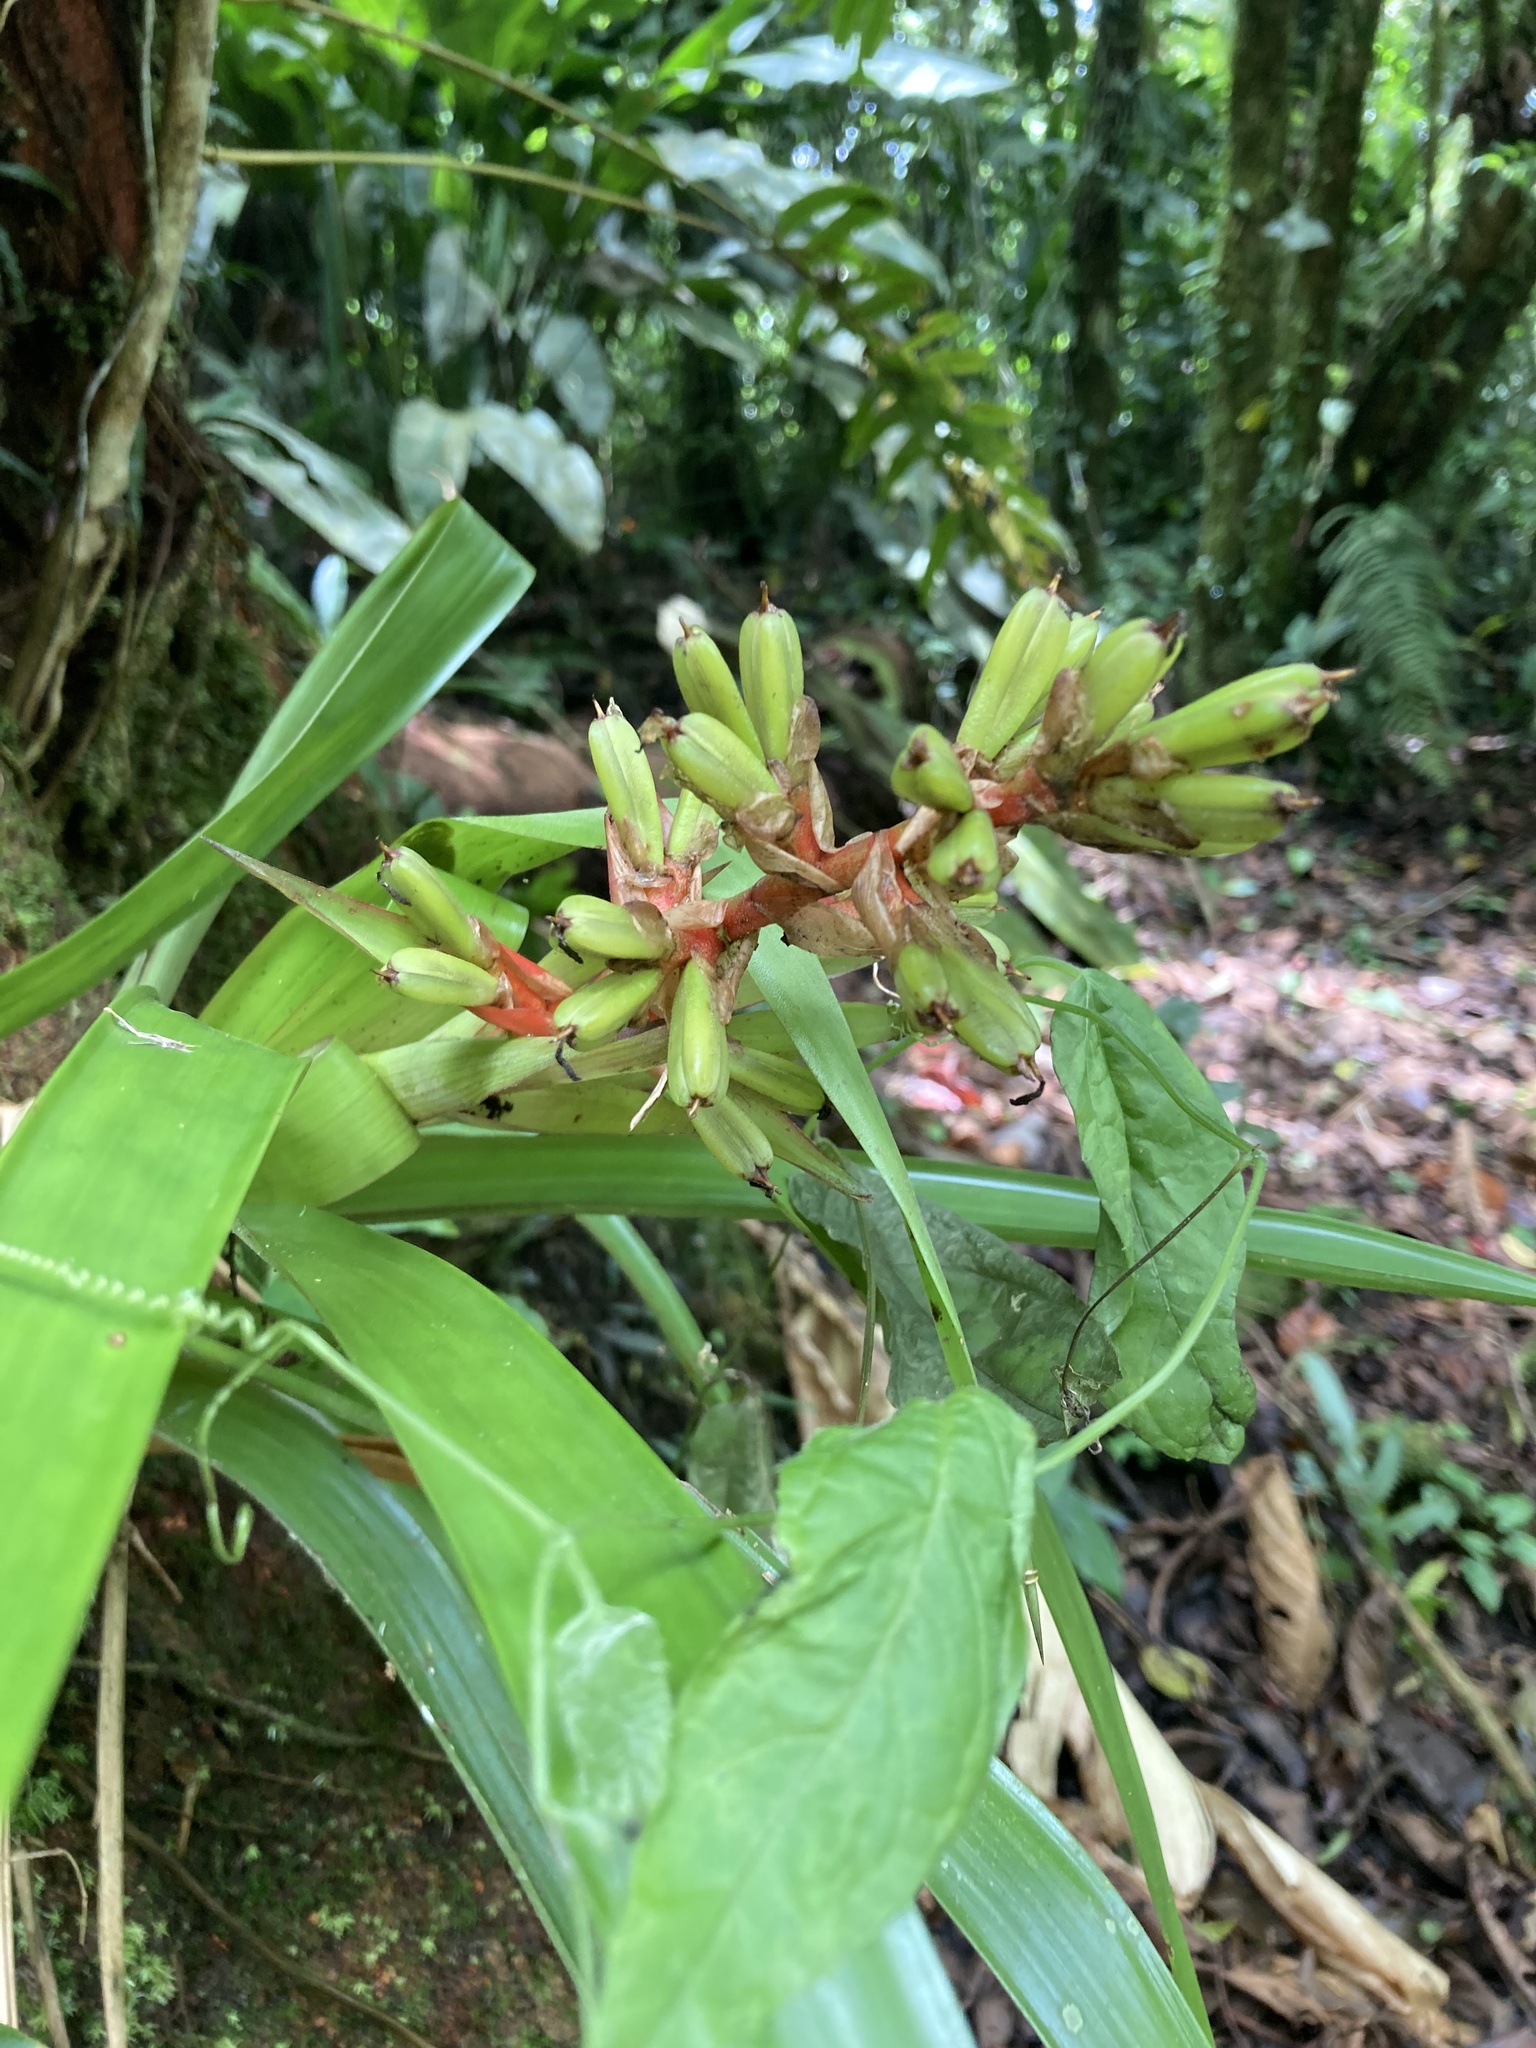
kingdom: Plantae
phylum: Tracheophyta
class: Liliopsida
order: Poales
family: Bromeliaceae
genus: Guzmania
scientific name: Guzmania donnellsmithii
